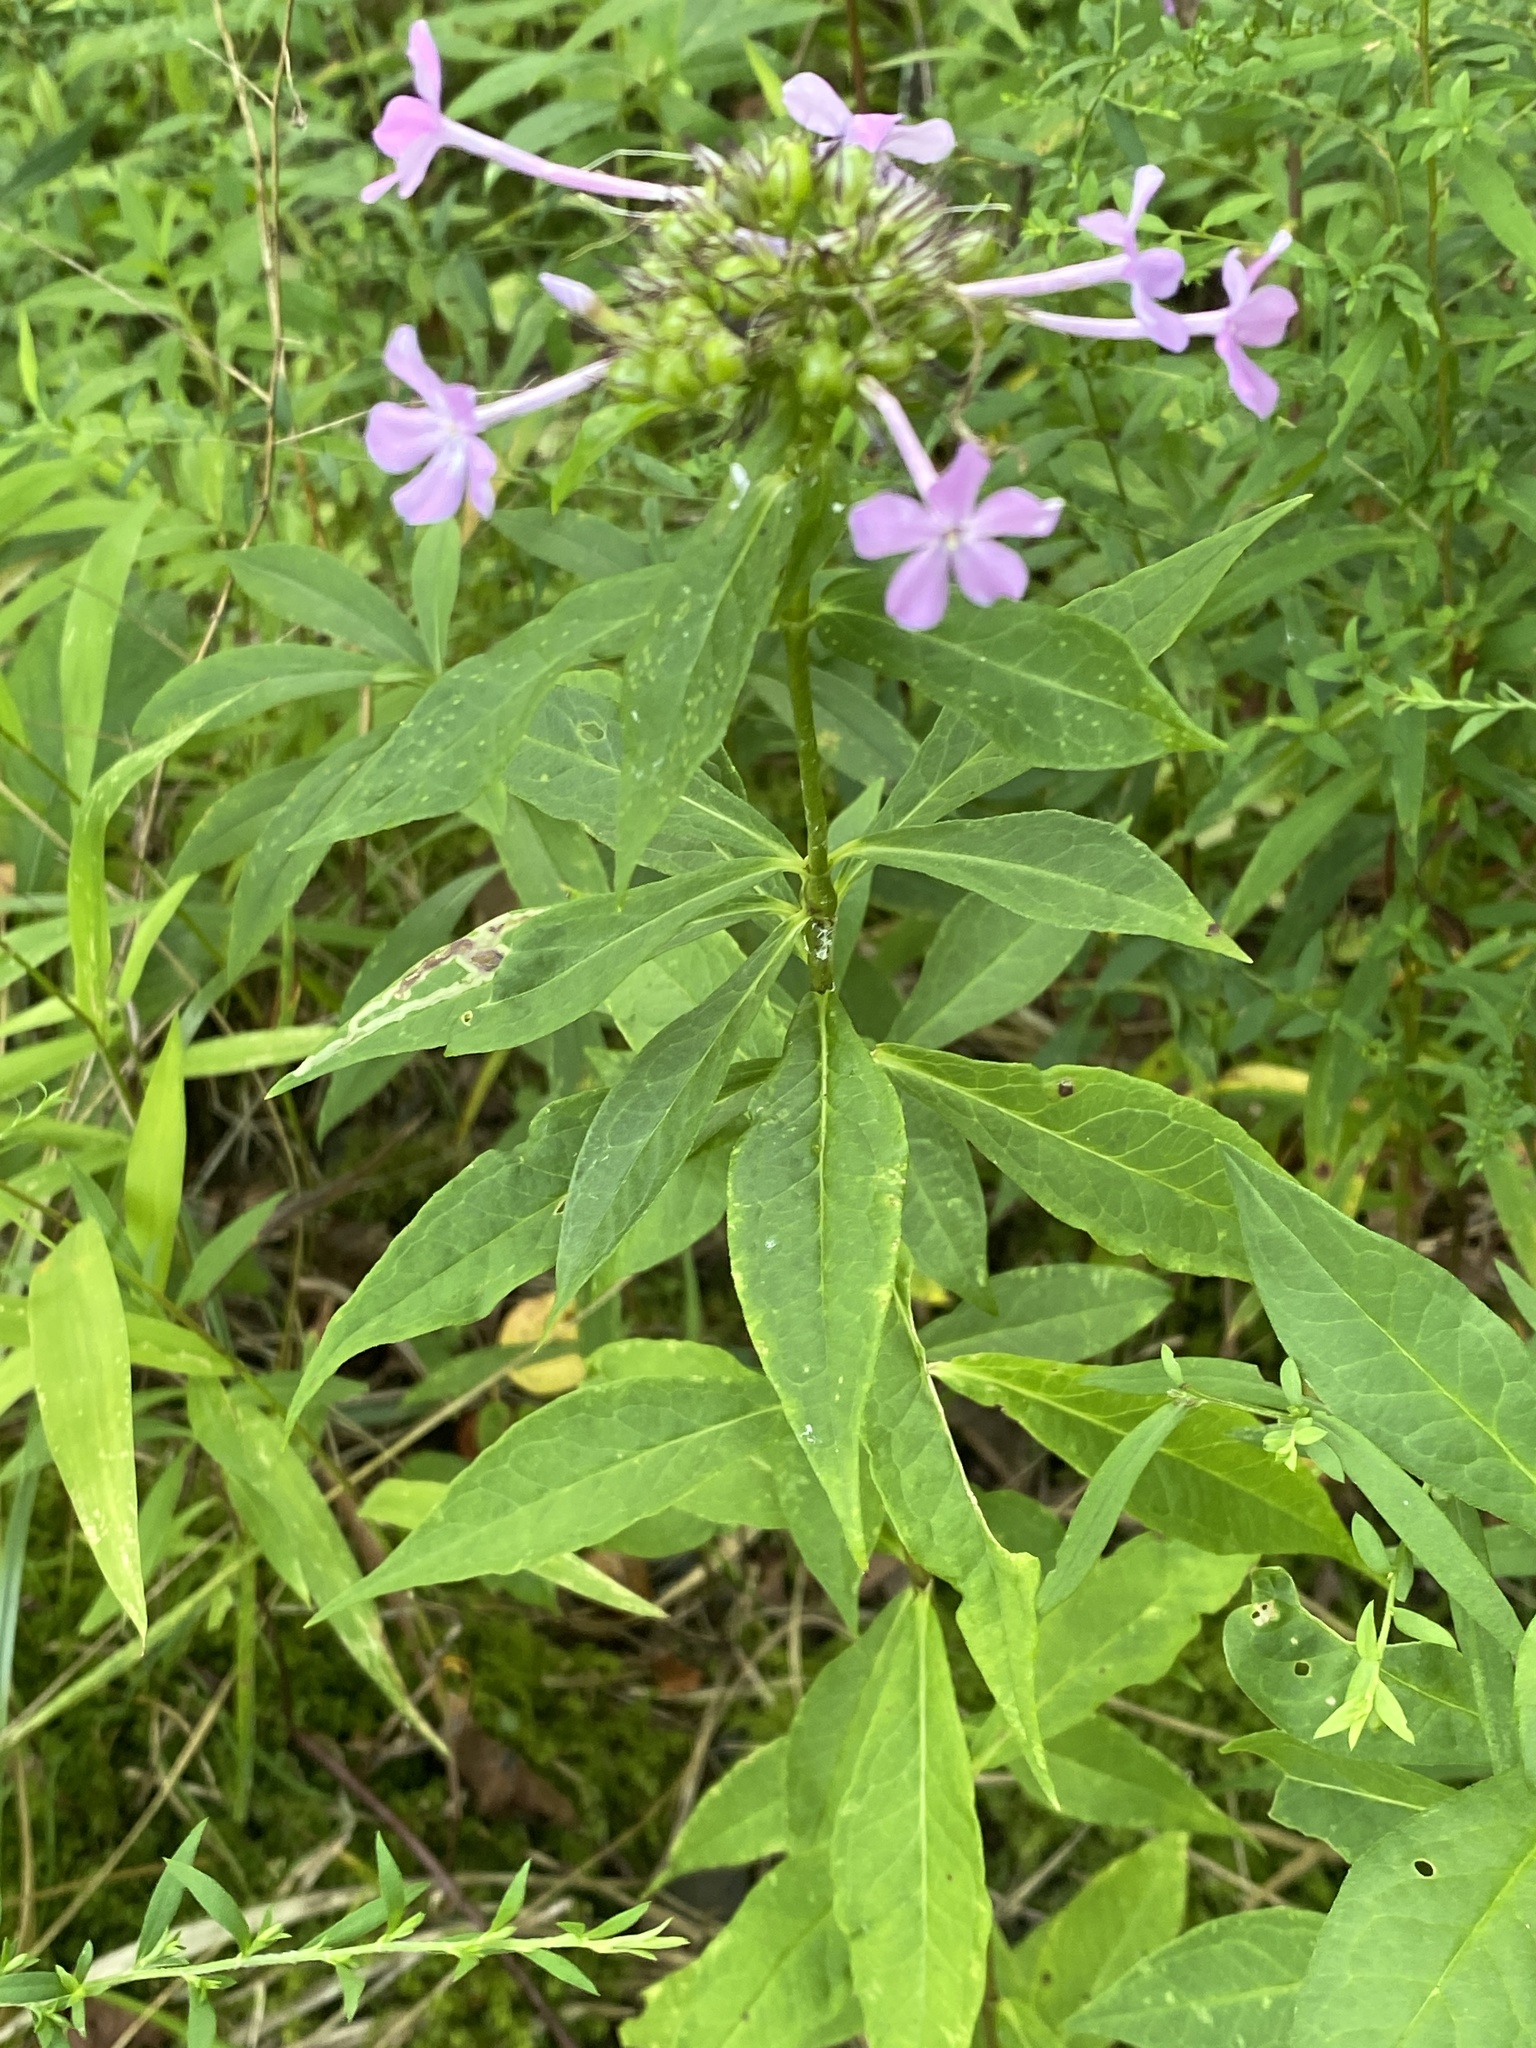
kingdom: Plantae
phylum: Tracheophyta
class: Magnoliopsida
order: Ericales
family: Polemoniaceae
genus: Phlox
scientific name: Phlox paniculata
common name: Fall phlox
